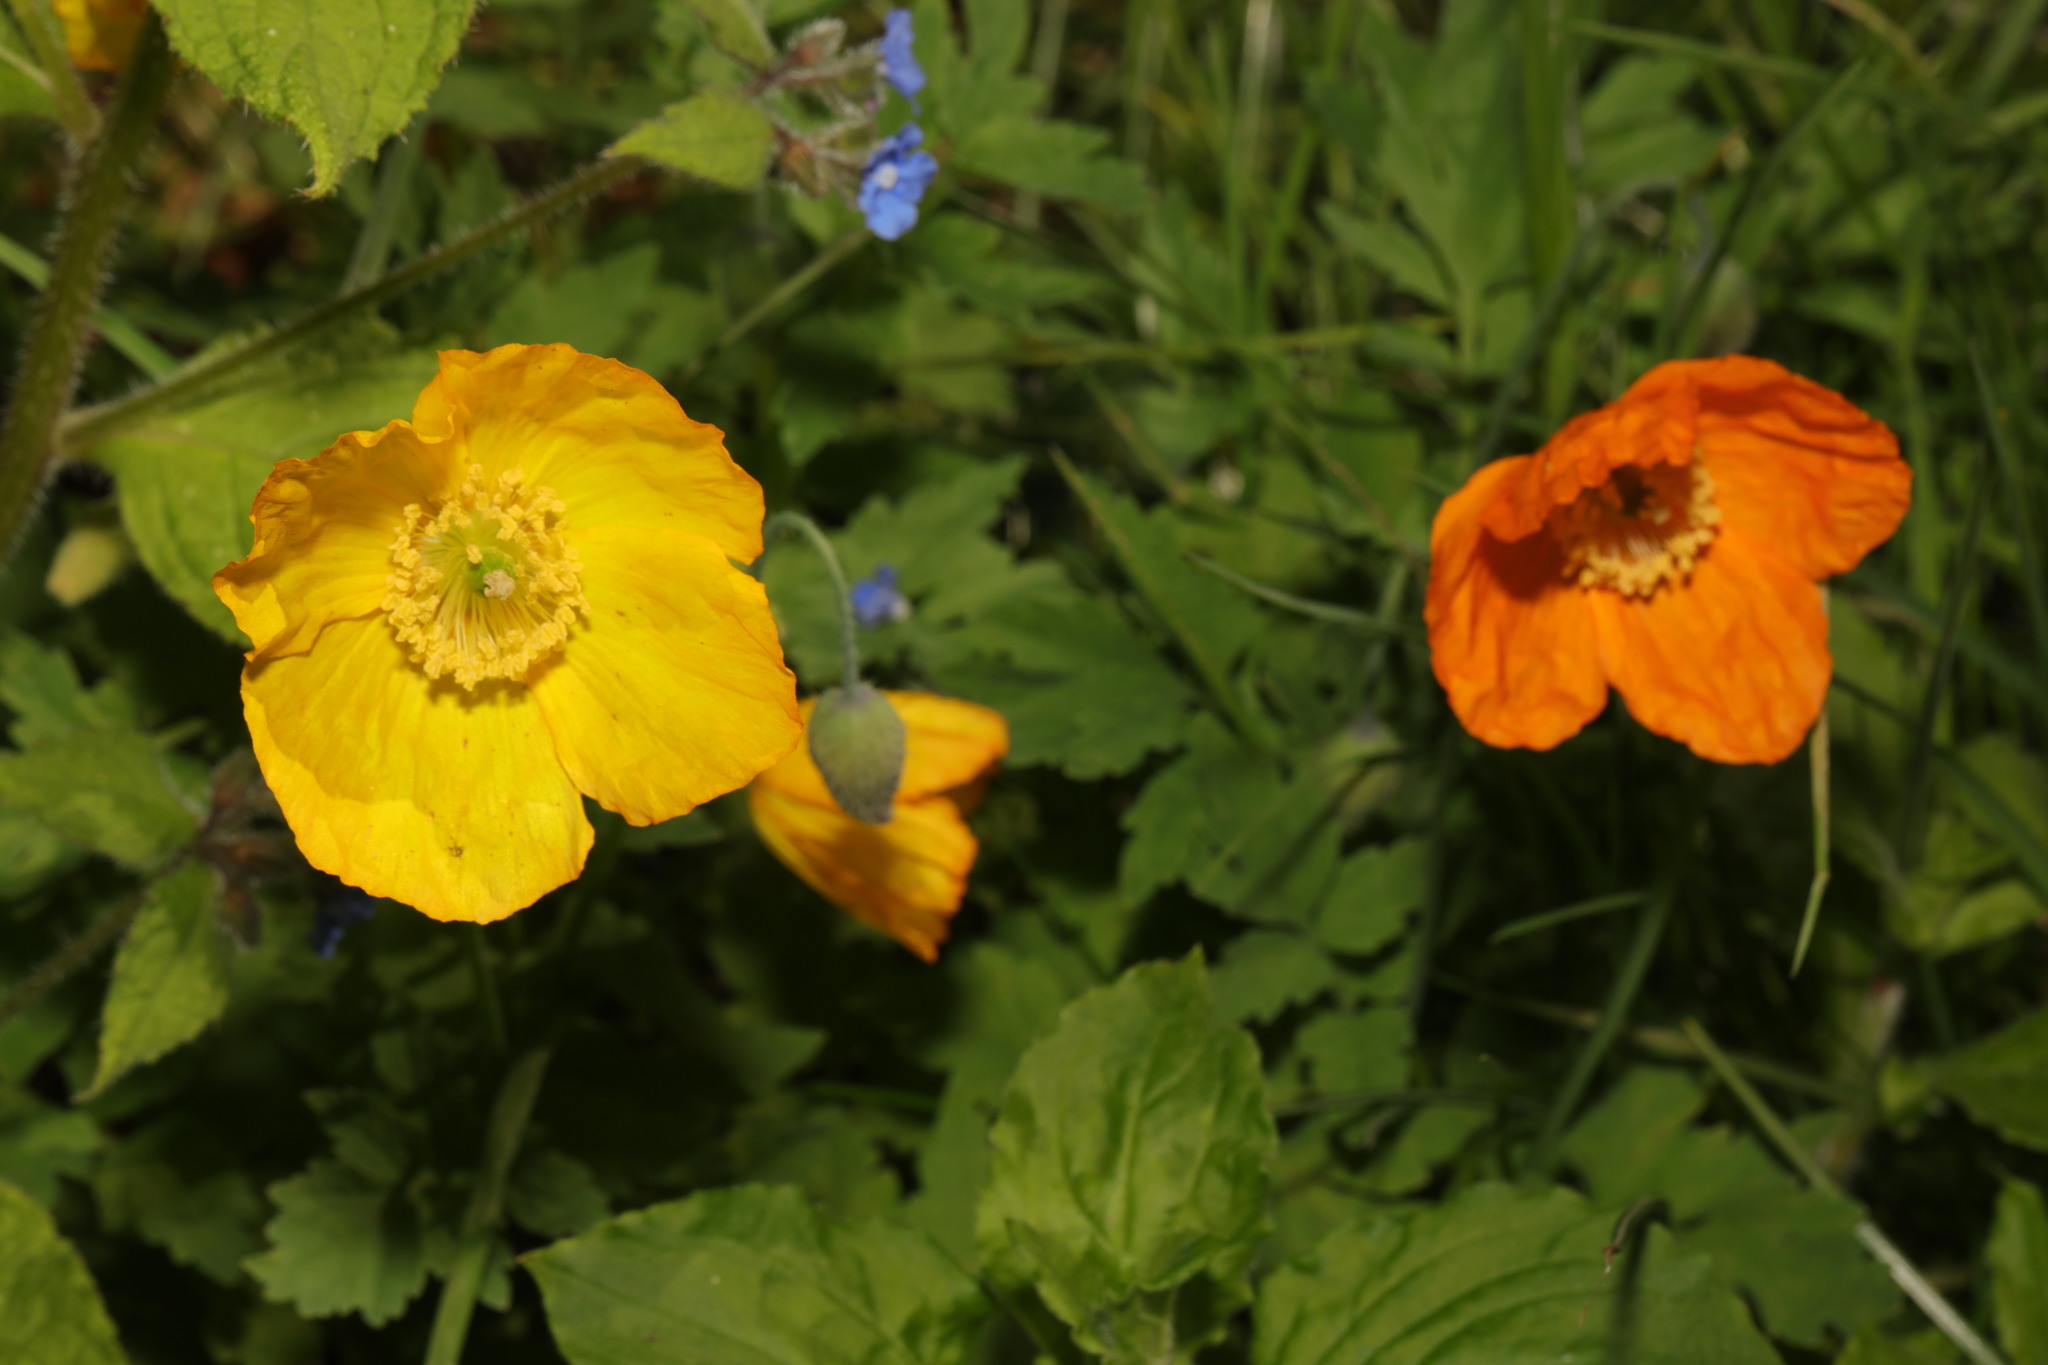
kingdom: Plantae
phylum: Tracheophyta
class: Magnoliopsida
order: Ranunculales
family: Papaveraceae
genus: Papaver
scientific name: Papaver cambricum
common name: Poppy
